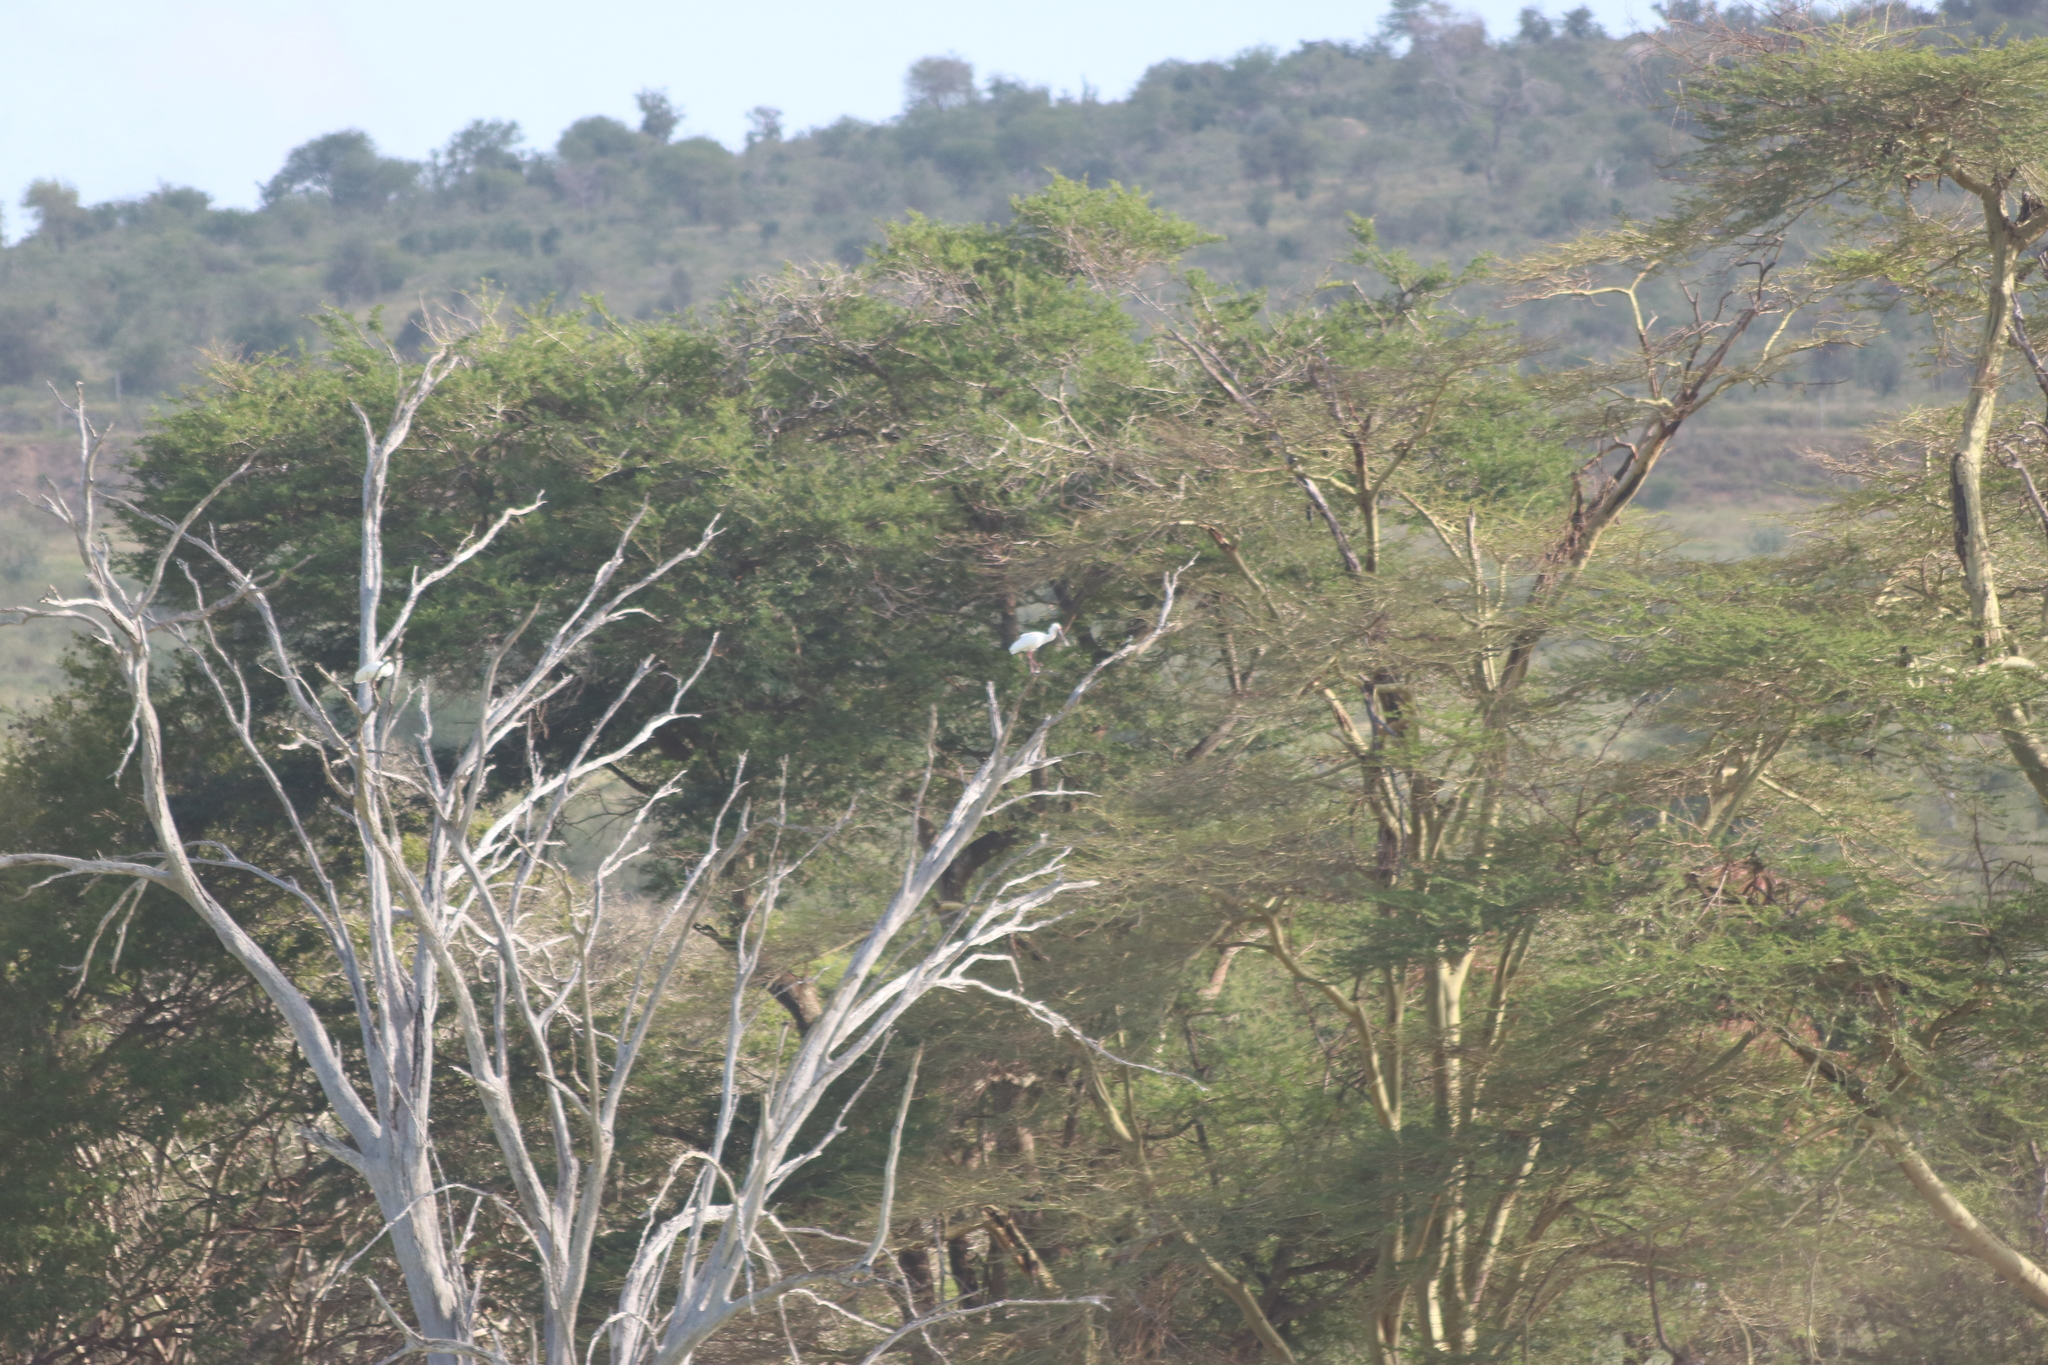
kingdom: Animalia
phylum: Chordata
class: Aves
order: Pelecaniformes
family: Threskiornithidae
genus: Platalea
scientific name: Platalea alba
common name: African spoonbill
